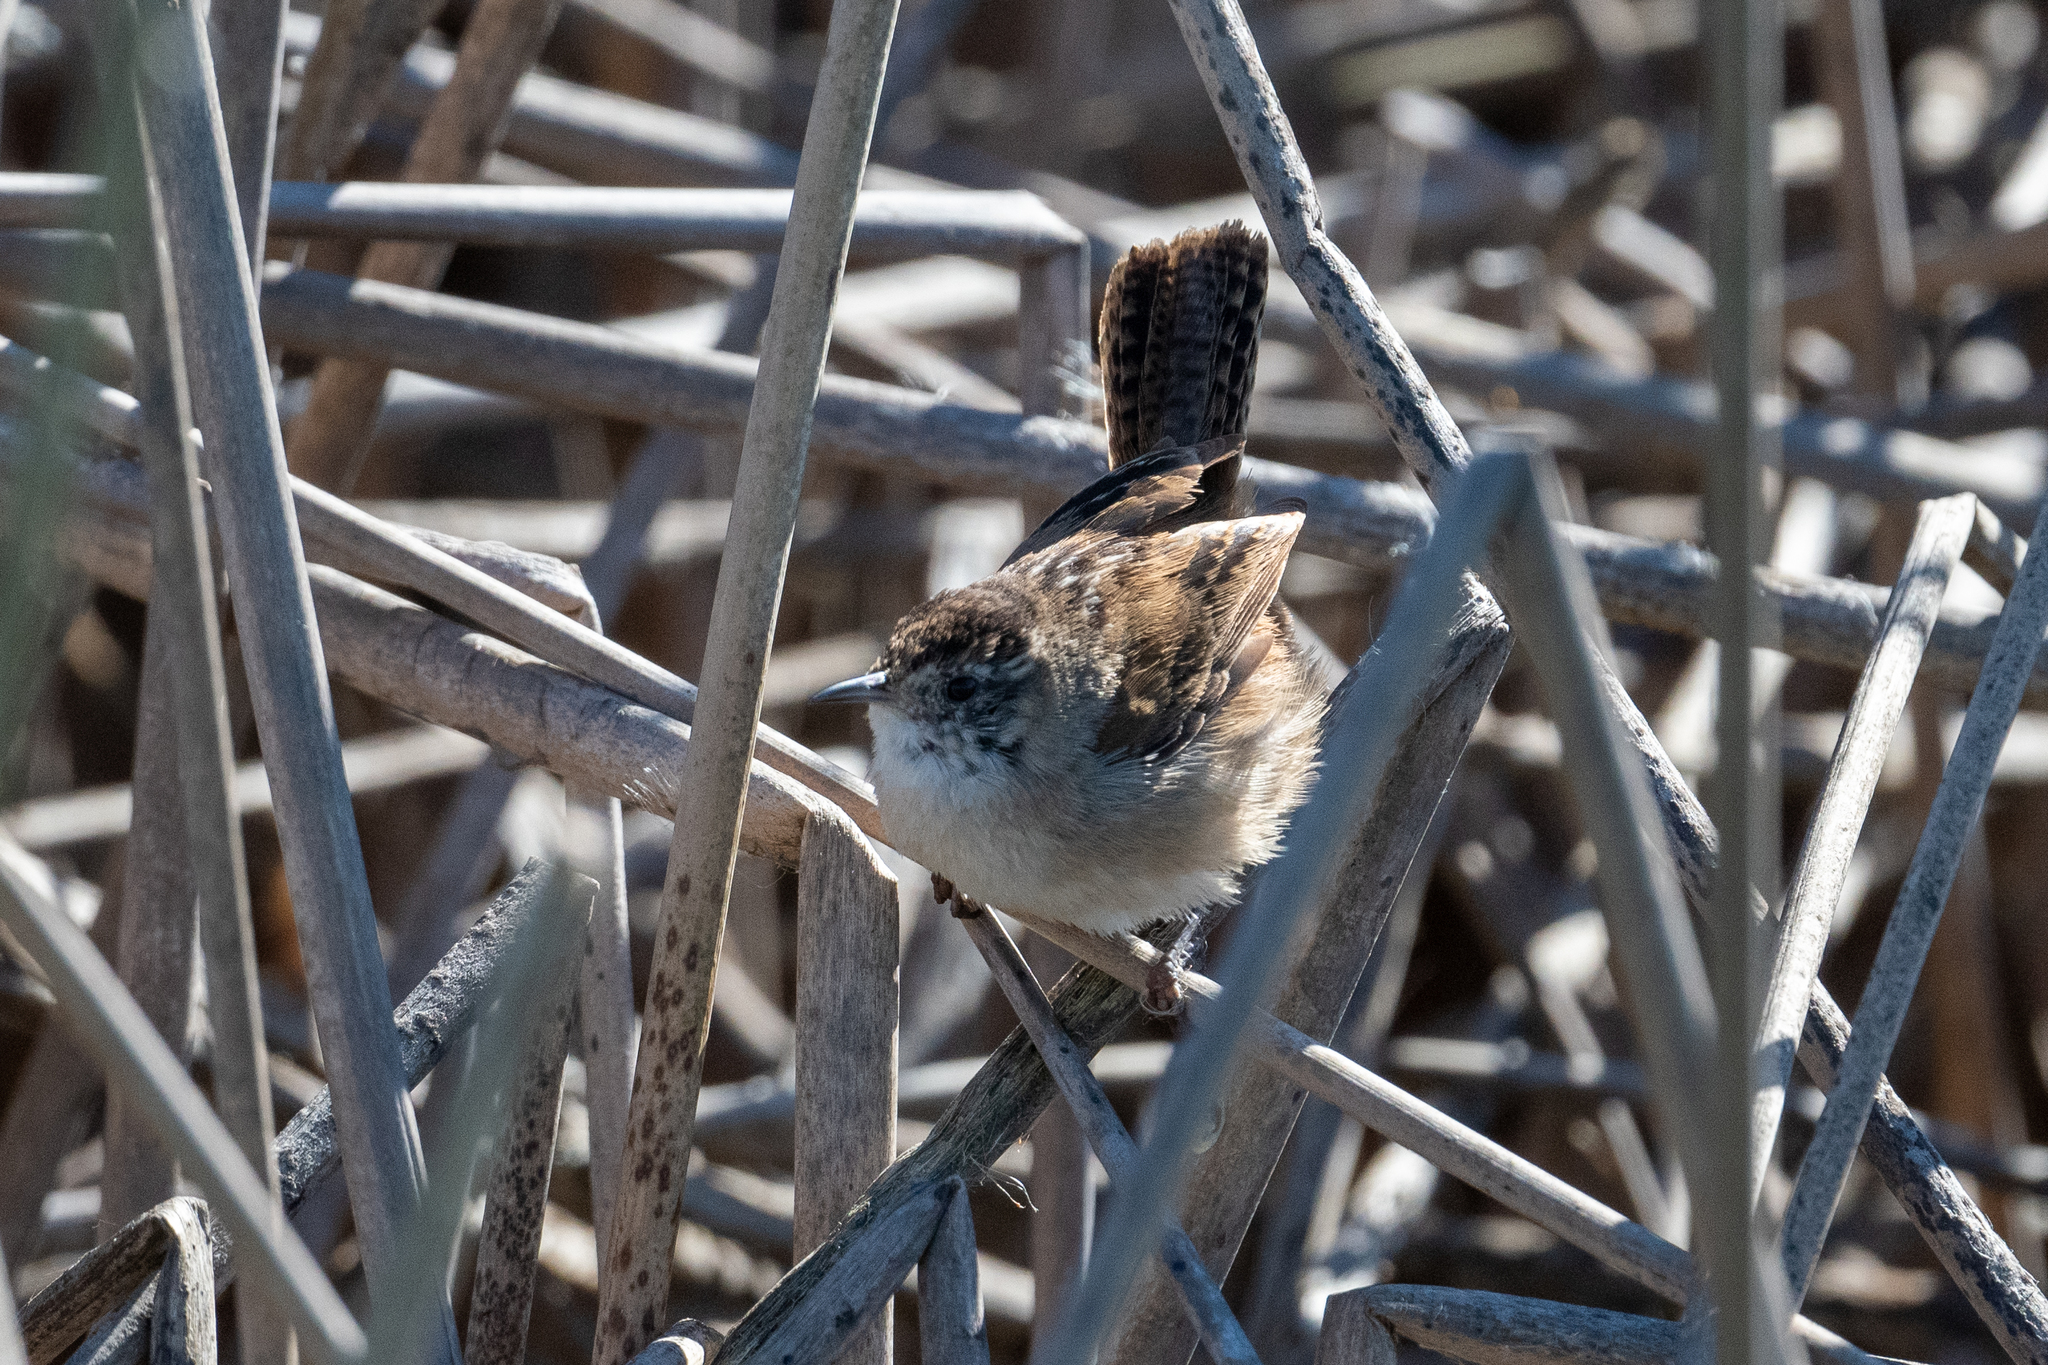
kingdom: Animalia
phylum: Chordata
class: Aves
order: Passeriformes
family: Troglodytidae
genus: Cistothorus
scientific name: Cistothorus palustris
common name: Marsh wren
